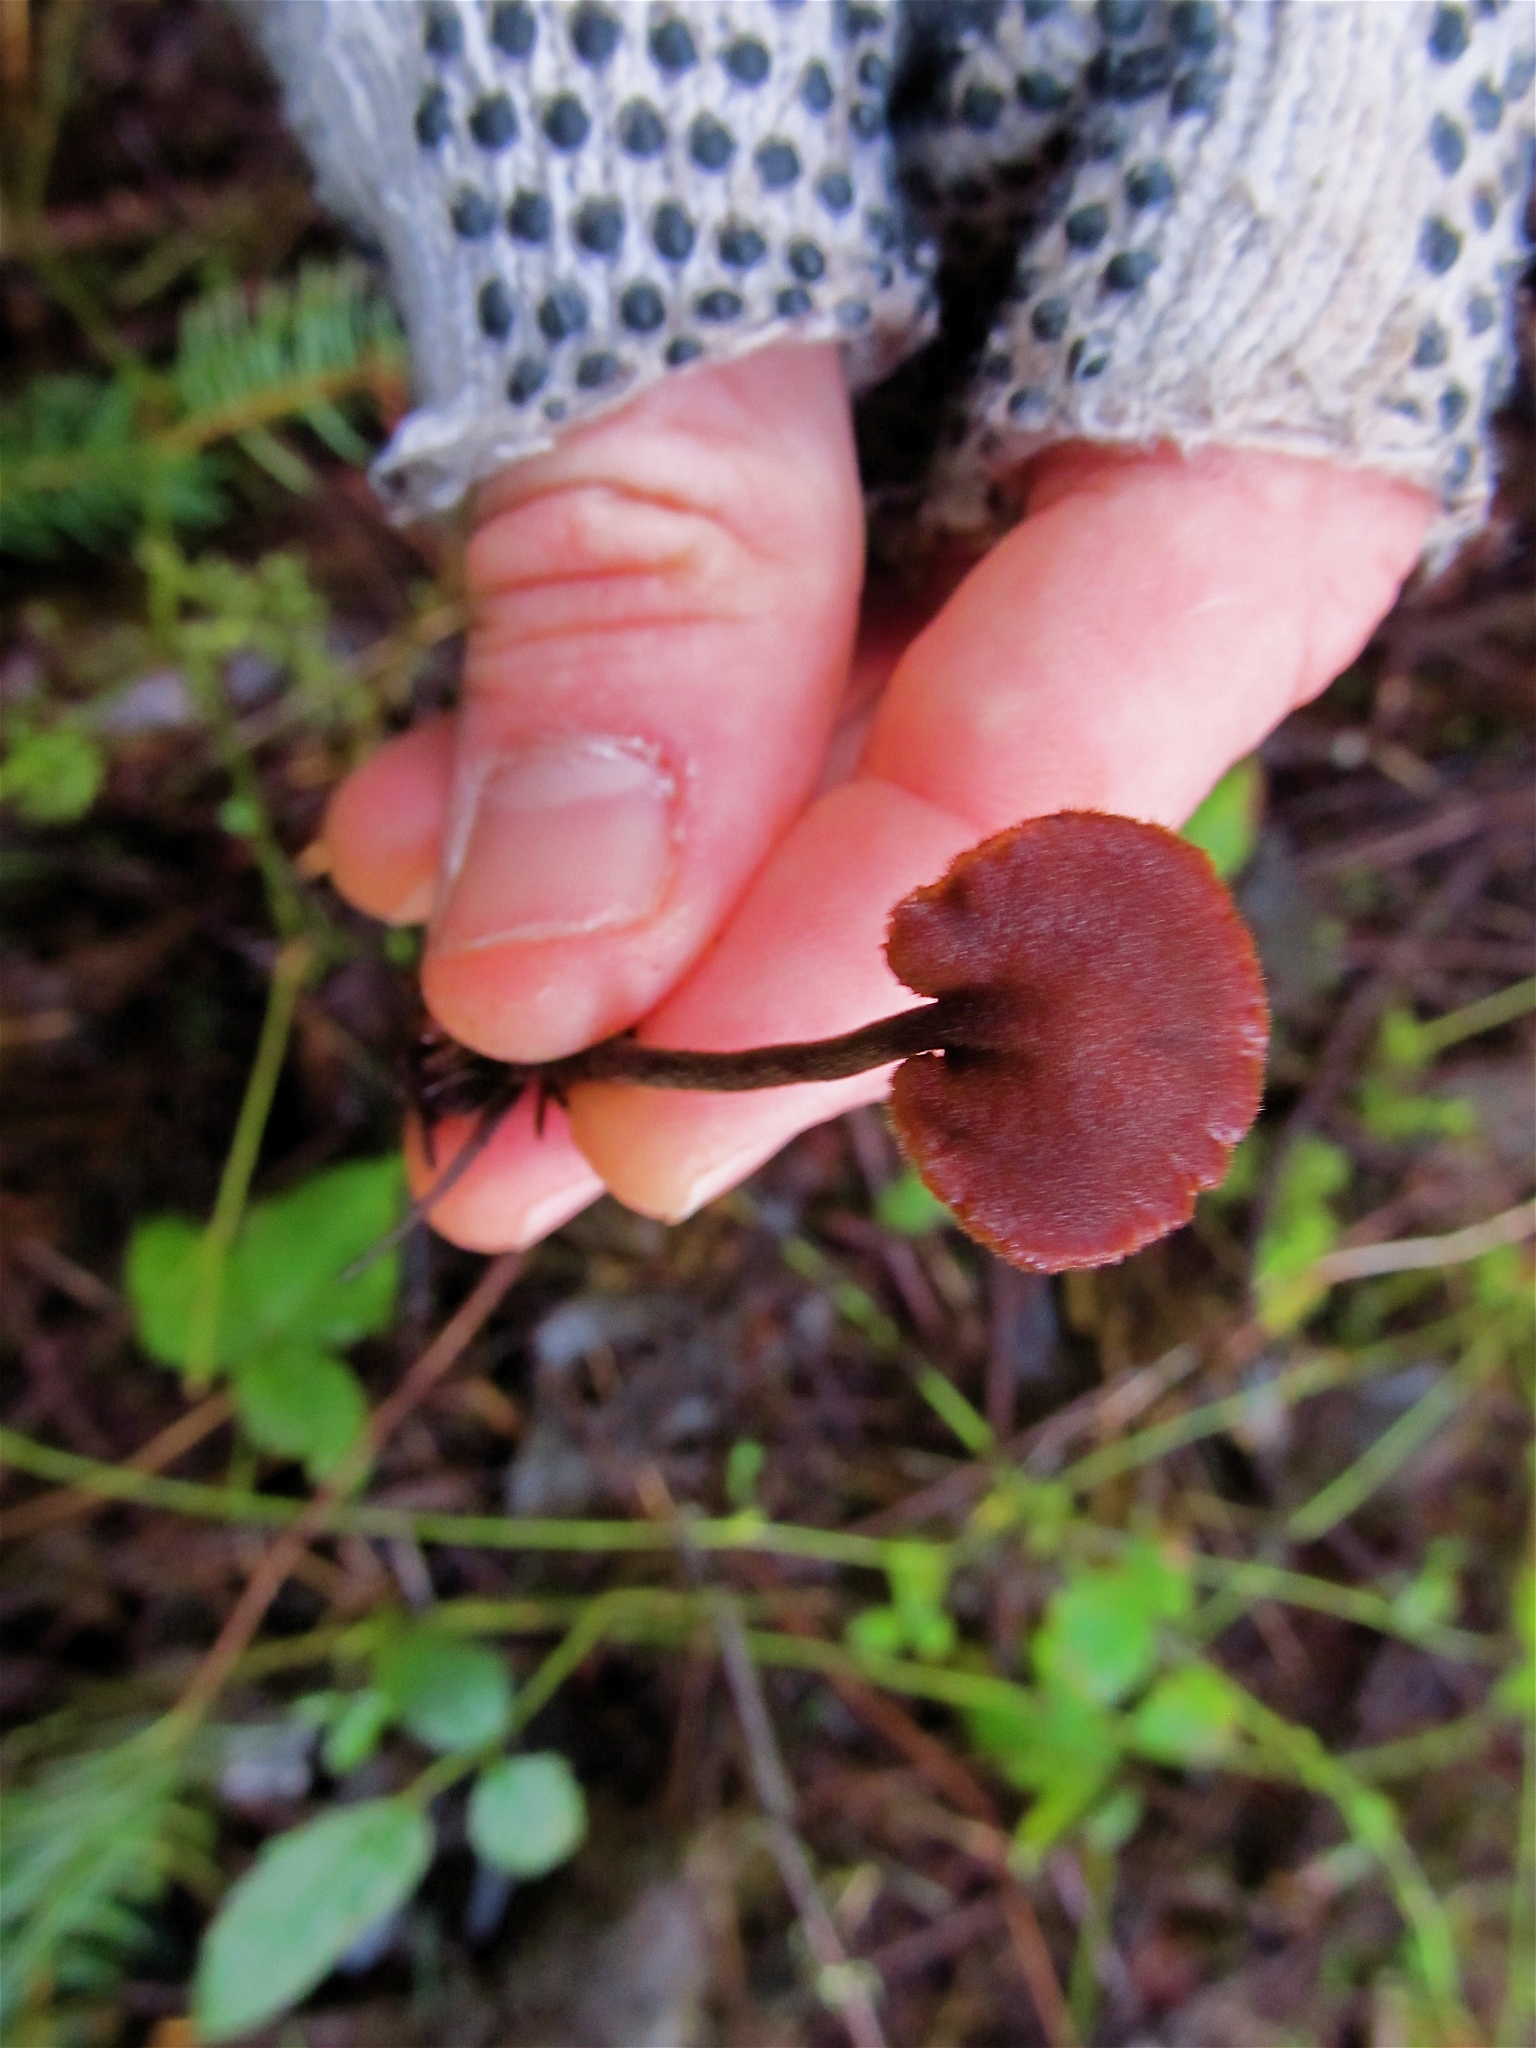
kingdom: Fungi
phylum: Basidiomycota
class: Agaricomycetes
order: Russulales
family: Auriscalpiaceae
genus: Auriscalpium
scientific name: Auriscalpium vulgare
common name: Earpick fungus
